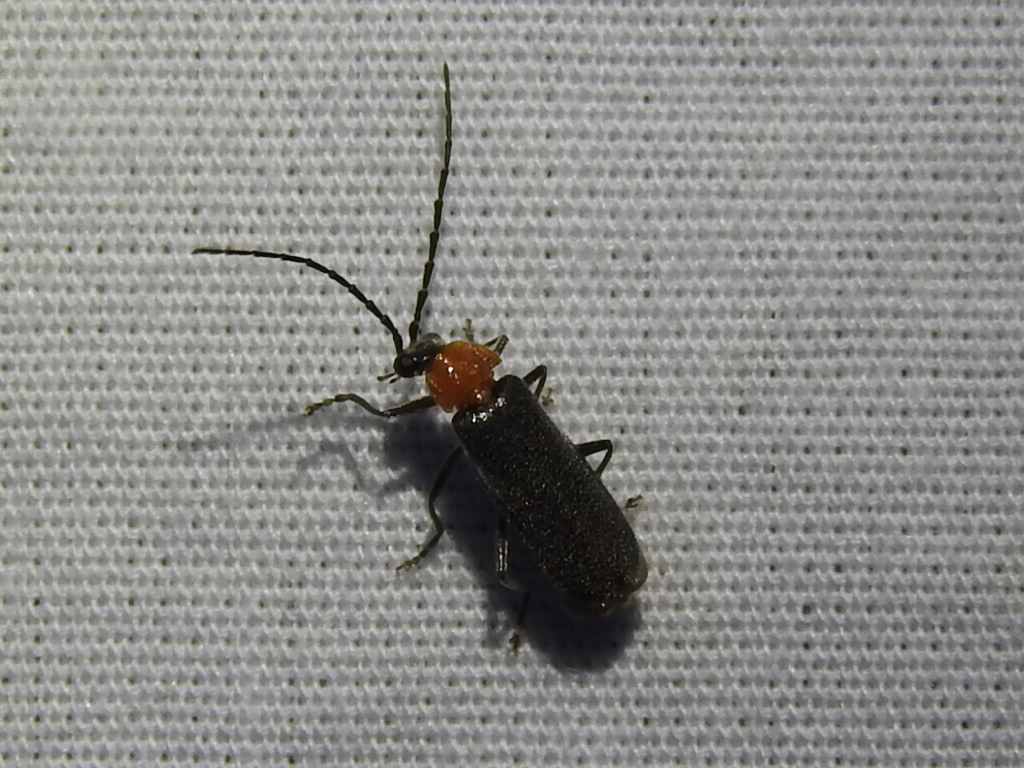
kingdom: Animalia
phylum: Arthropoda
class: Insecta
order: Coleoptera
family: Cantharidae
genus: Ditemnus
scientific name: Ditemnus
